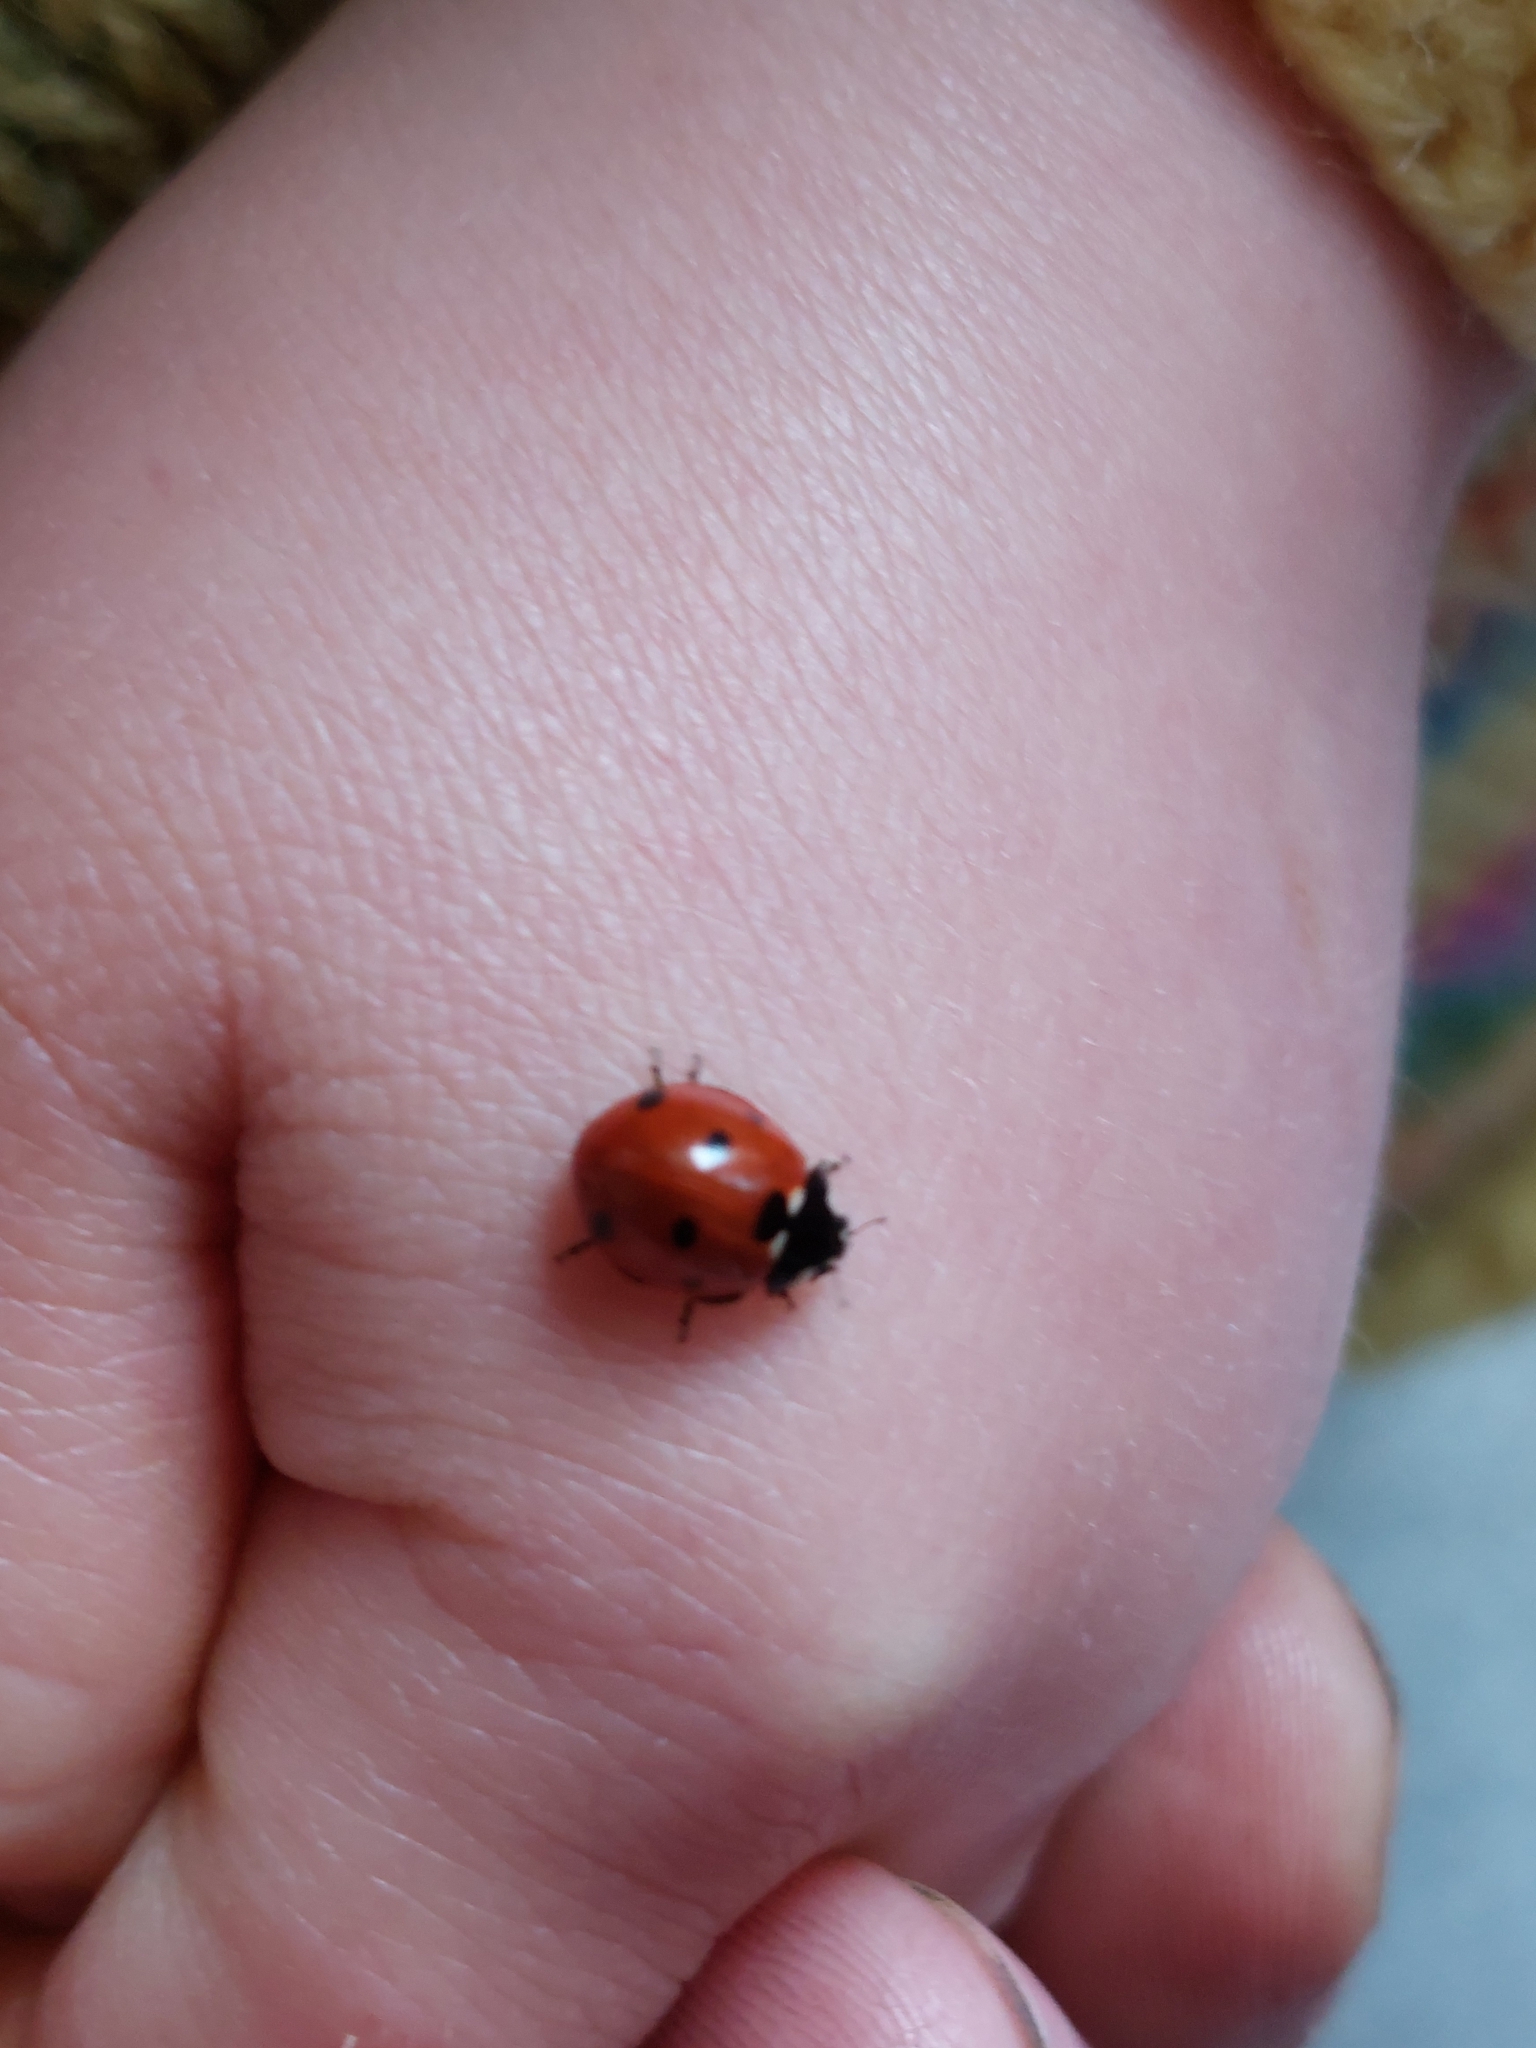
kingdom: Animalia
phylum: Arthropoda
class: Insecta
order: Coleoptera
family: Coccinellidae
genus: Coccinella
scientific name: Coccinella septempunctata
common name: Sevenspotted lady beetle
